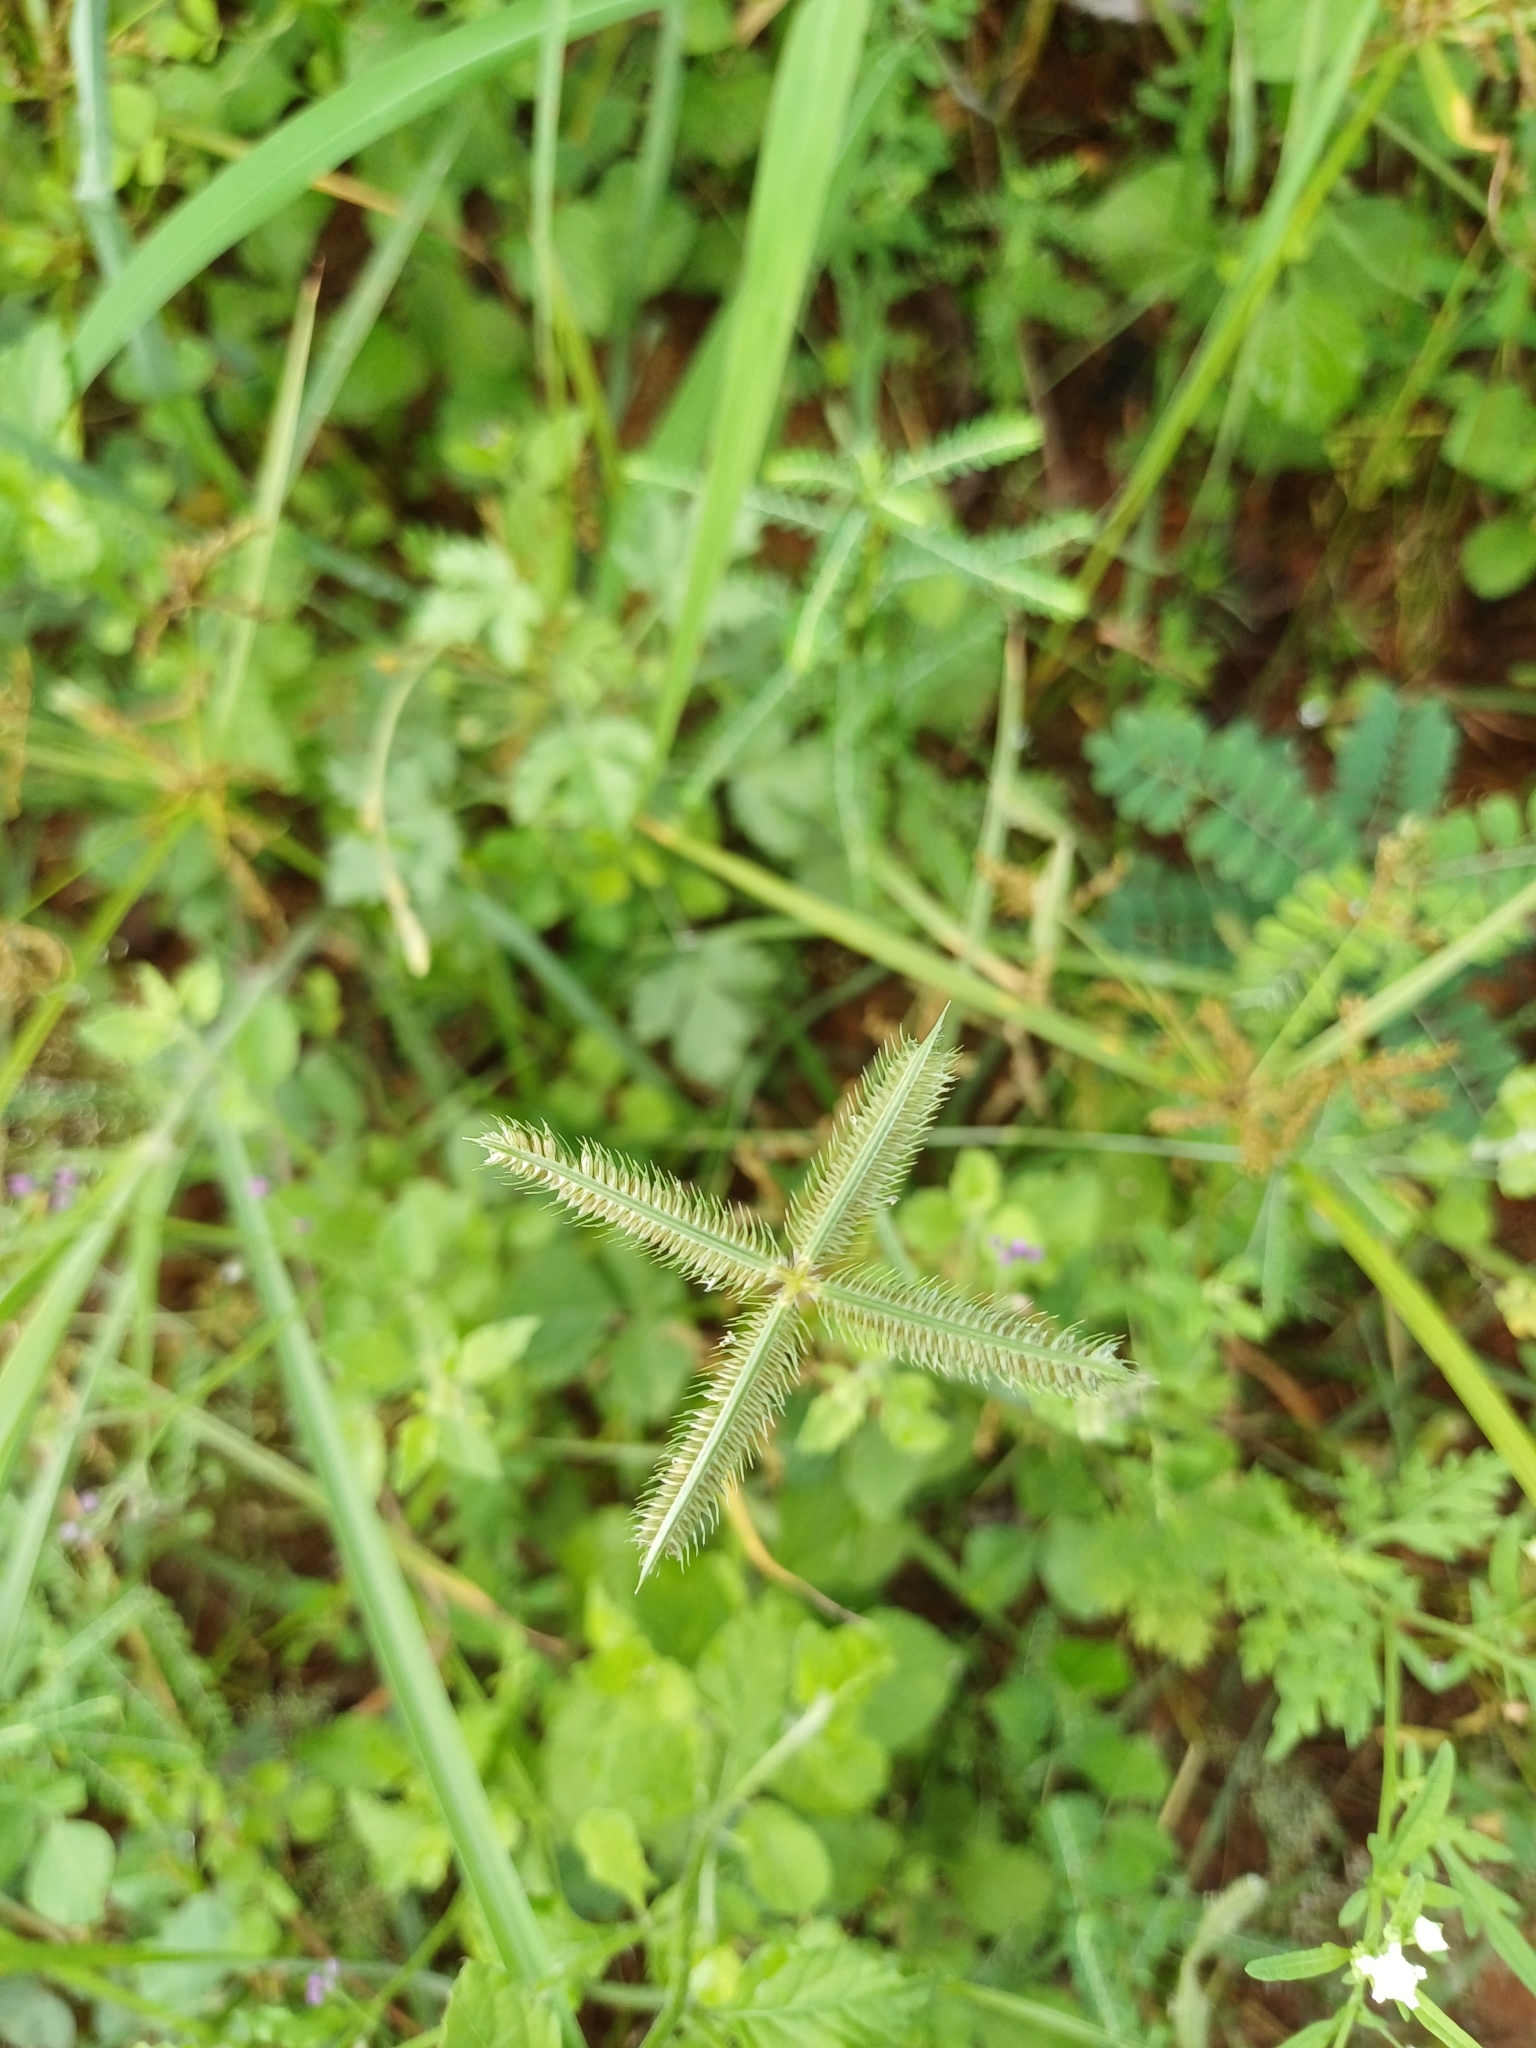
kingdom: Plantae
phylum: Tracheophyta
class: Liliopsida
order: Poales
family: Poaceae
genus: Dactyloctenium
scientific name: Dactyloctenium aegyptium
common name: Egyptian grass
